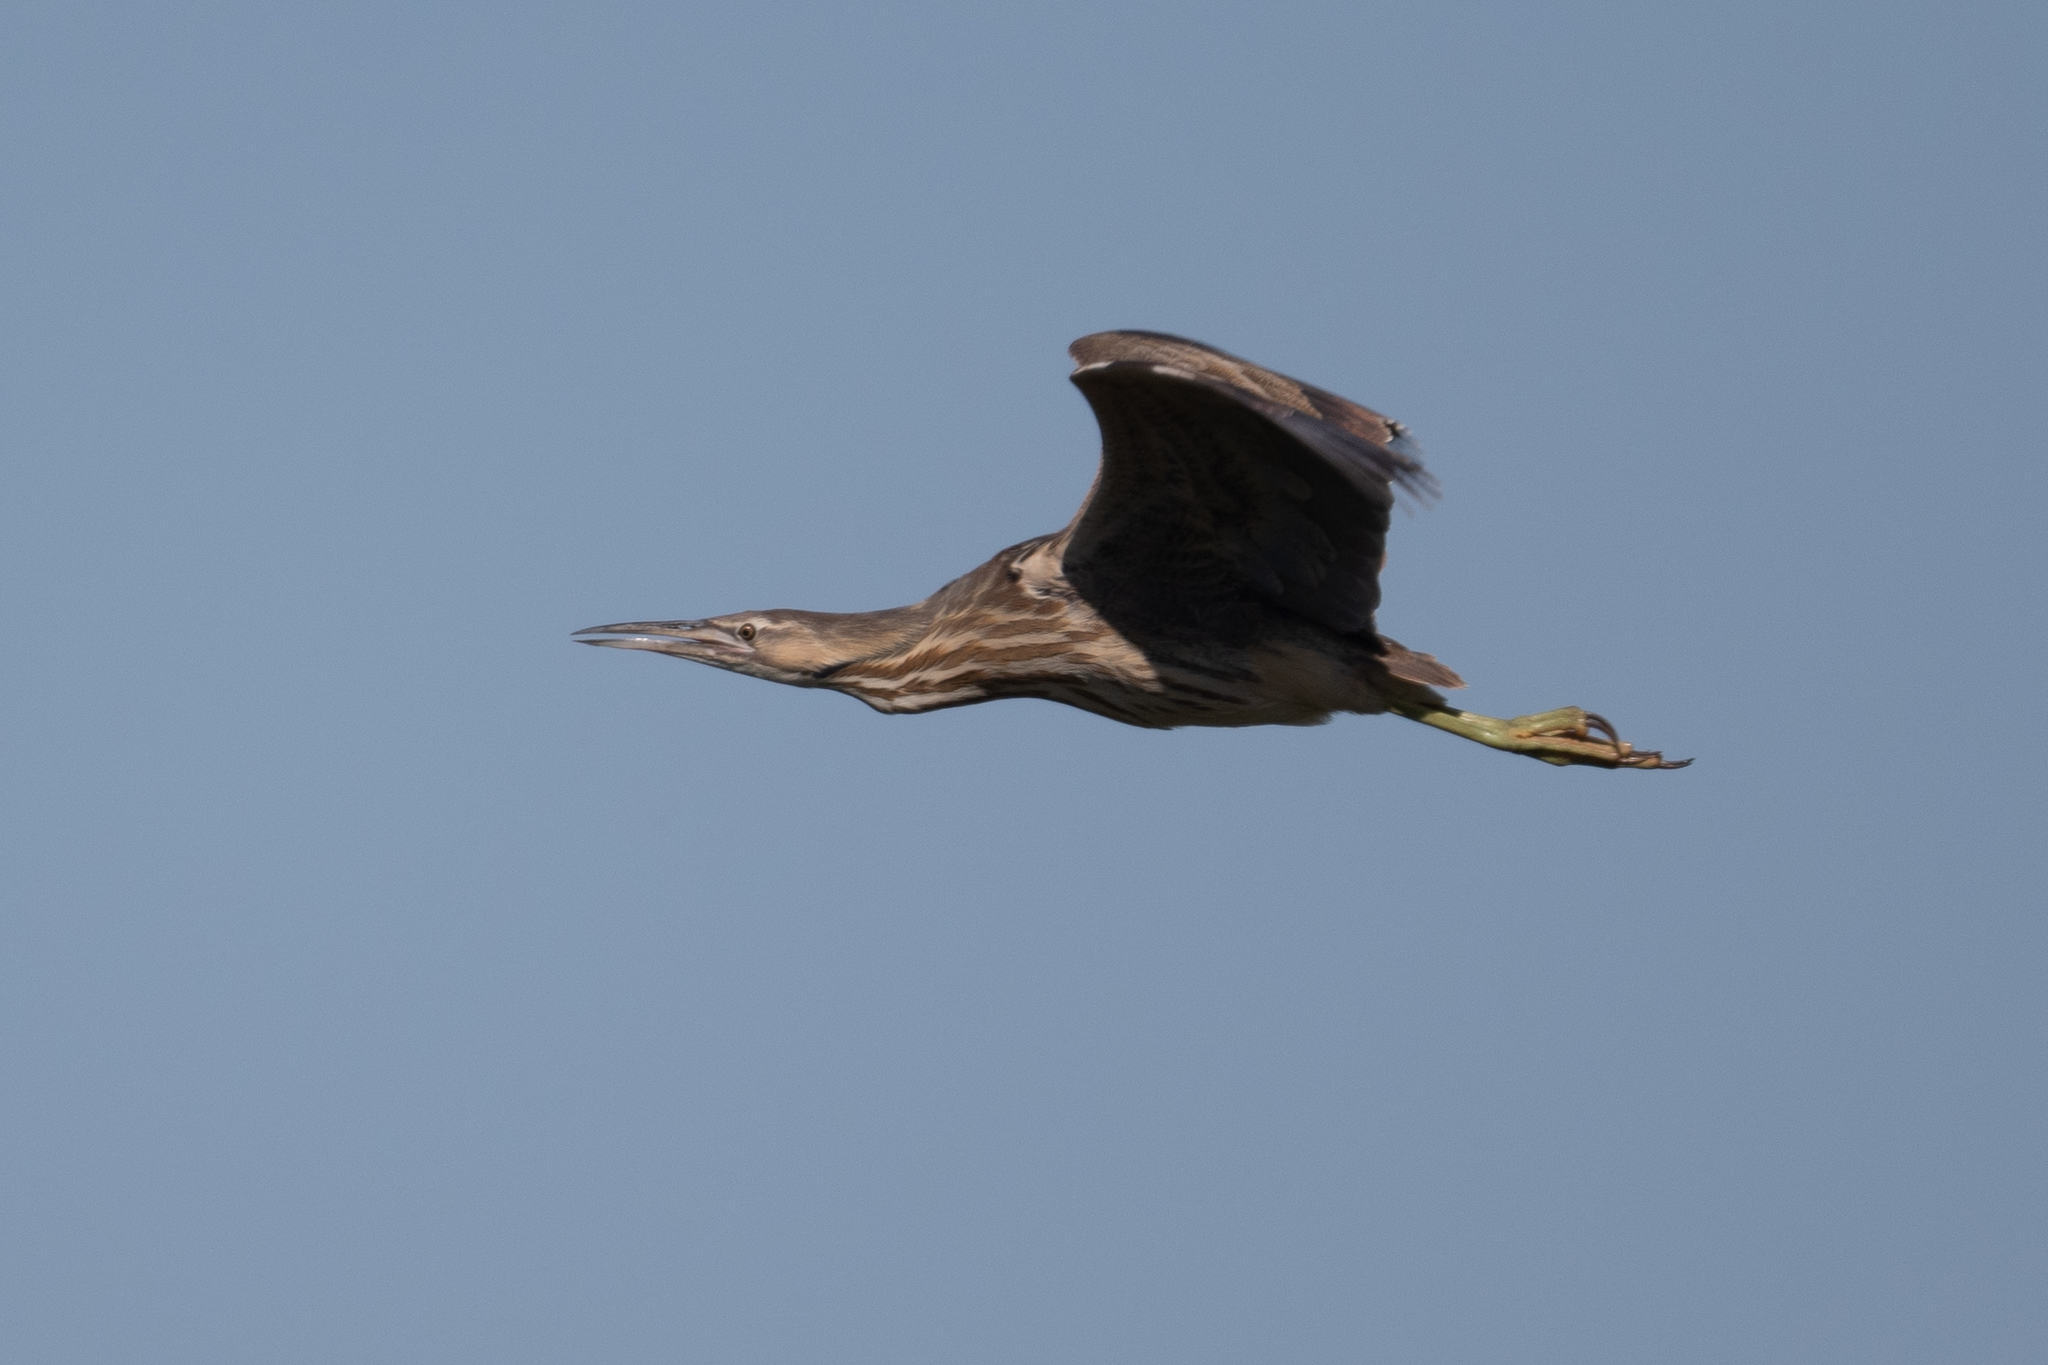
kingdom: Animalia
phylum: Chordata
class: Aves
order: Pelecaniformes
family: Ardeidae
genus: Botaurus
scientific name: Botaurus lentiginosus
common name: American bittern
